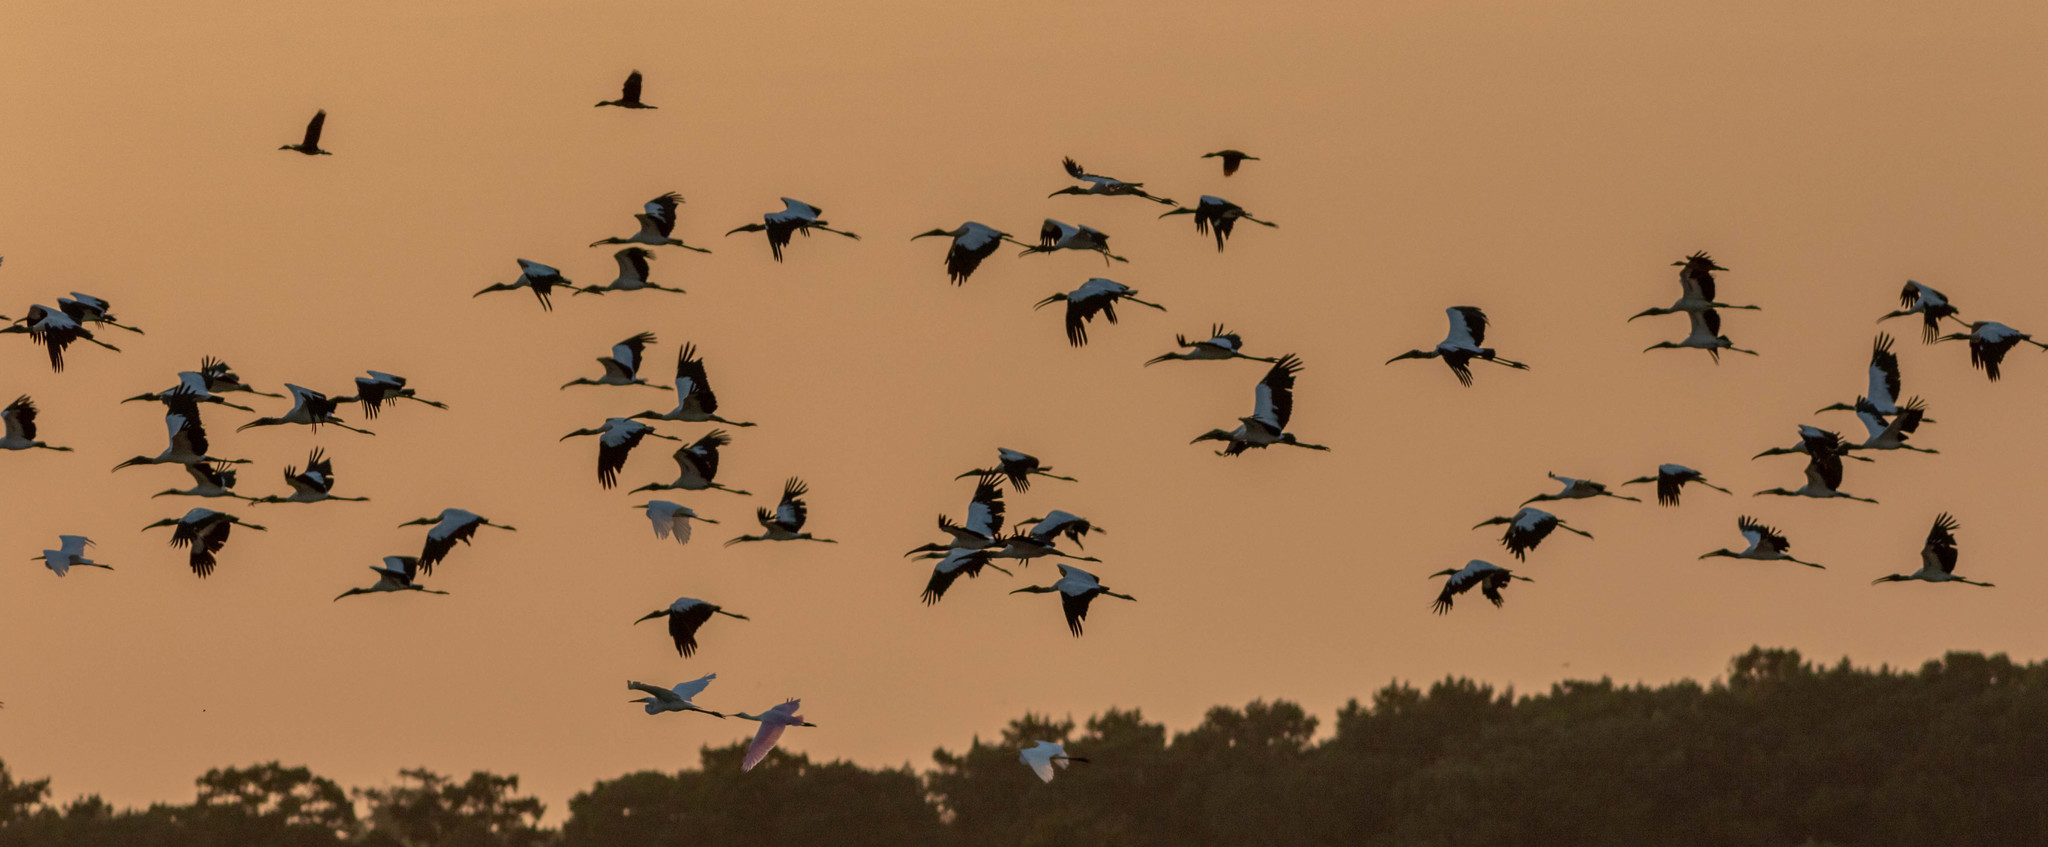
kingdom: Animalia
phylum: Chordata
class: Aves
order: Ciconiiformes
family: Ciconiidae
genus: Mycteria
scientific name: Mycteria americana
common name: Wood stork
